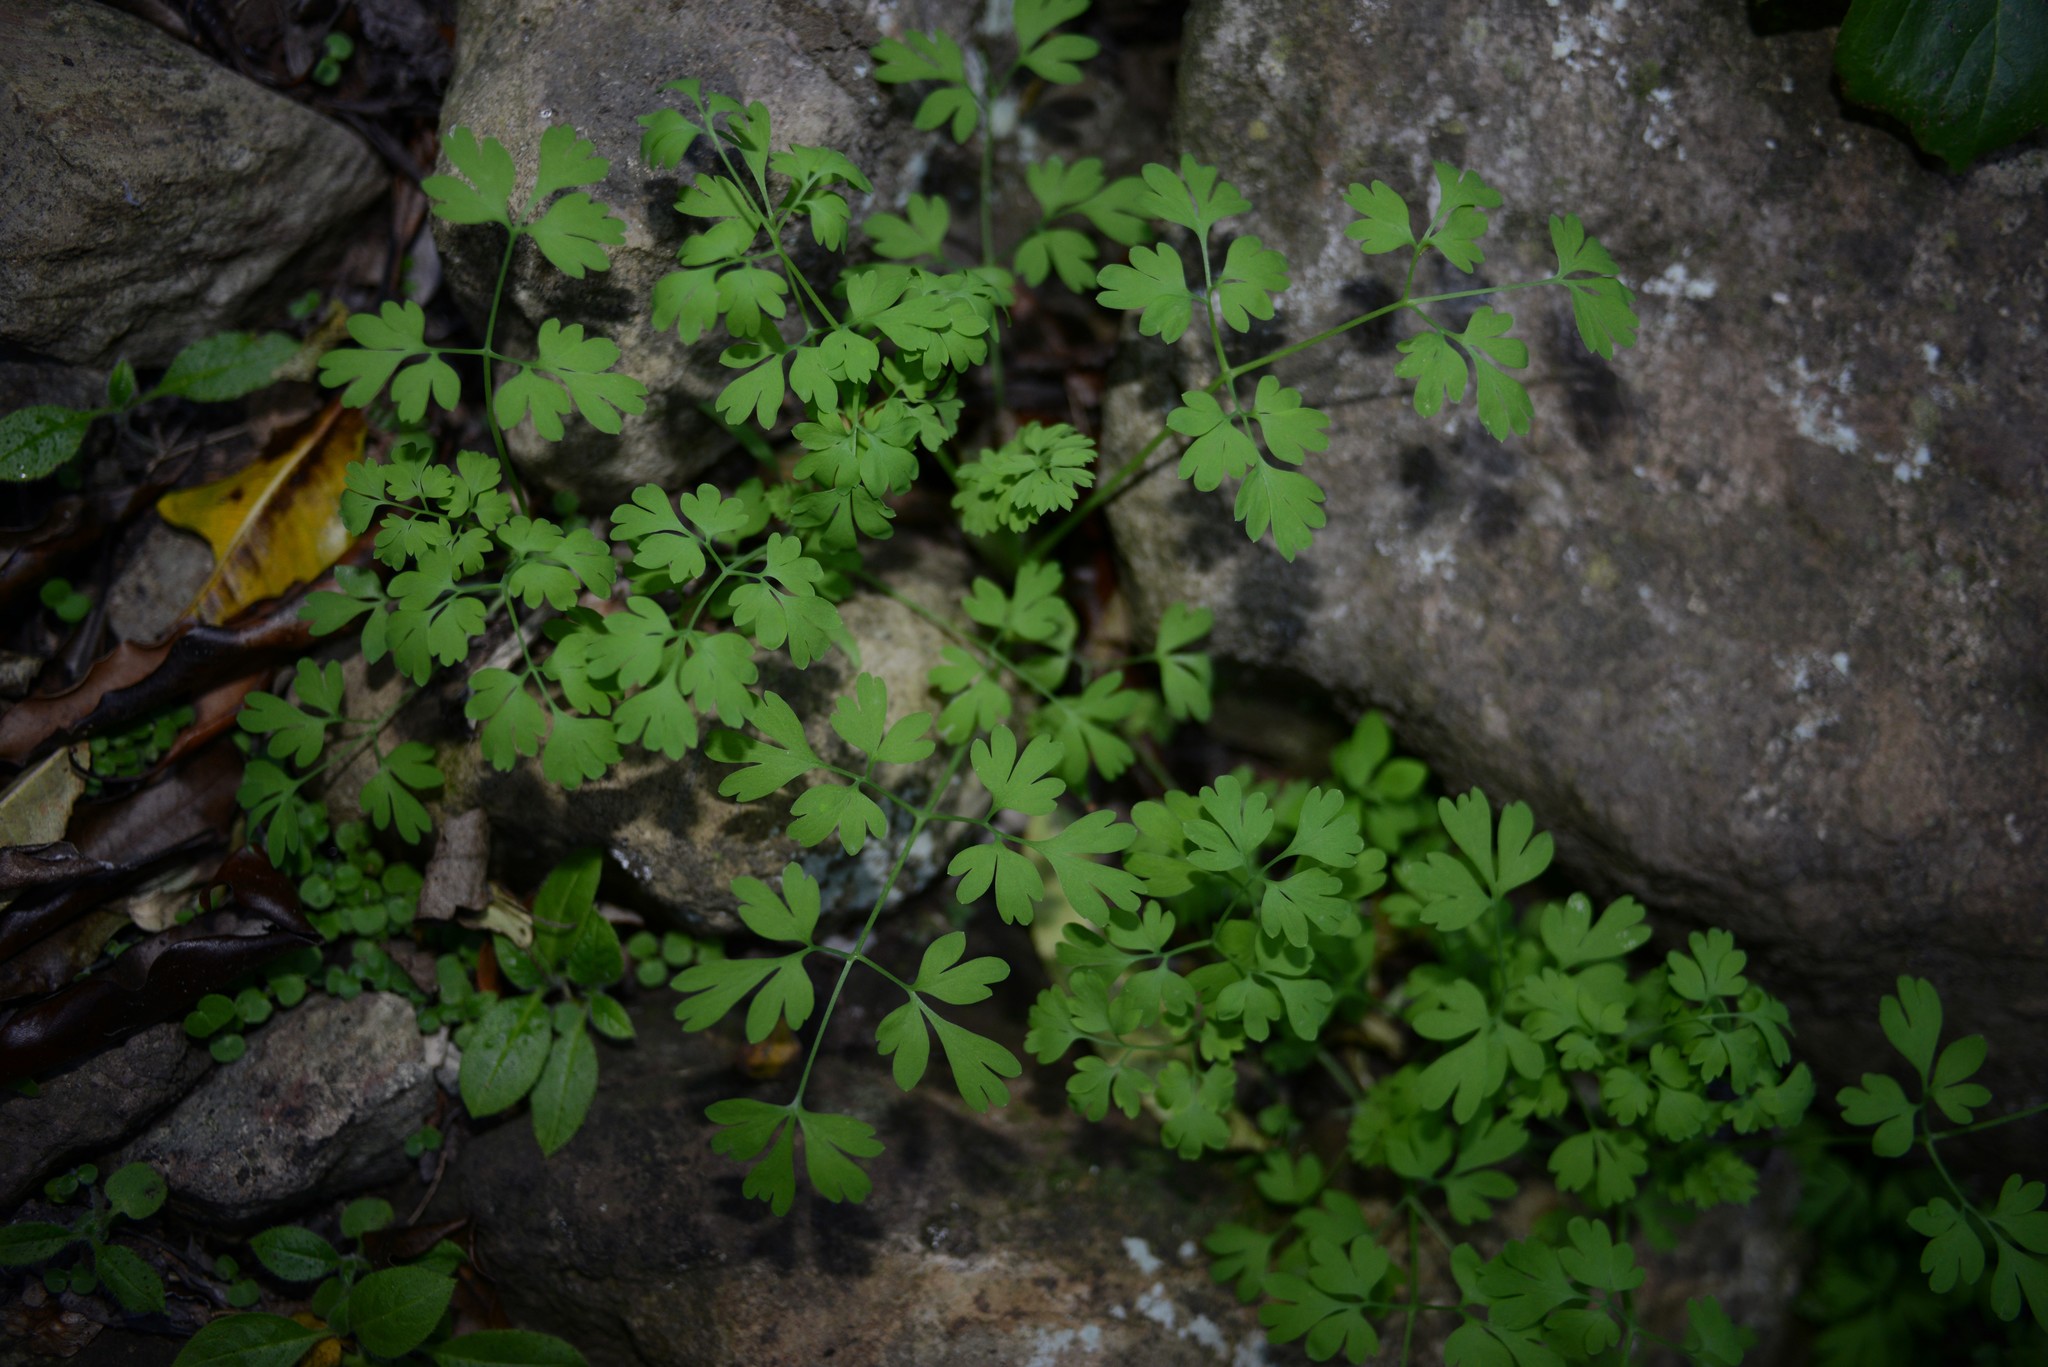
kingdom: Plantae
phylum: Tracheophyta
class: Magnoliopsida
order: Ranunculales
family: Papaveraceae
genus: Fumaria
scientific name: Fumaria muralis
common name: Common ramping-fumitory
